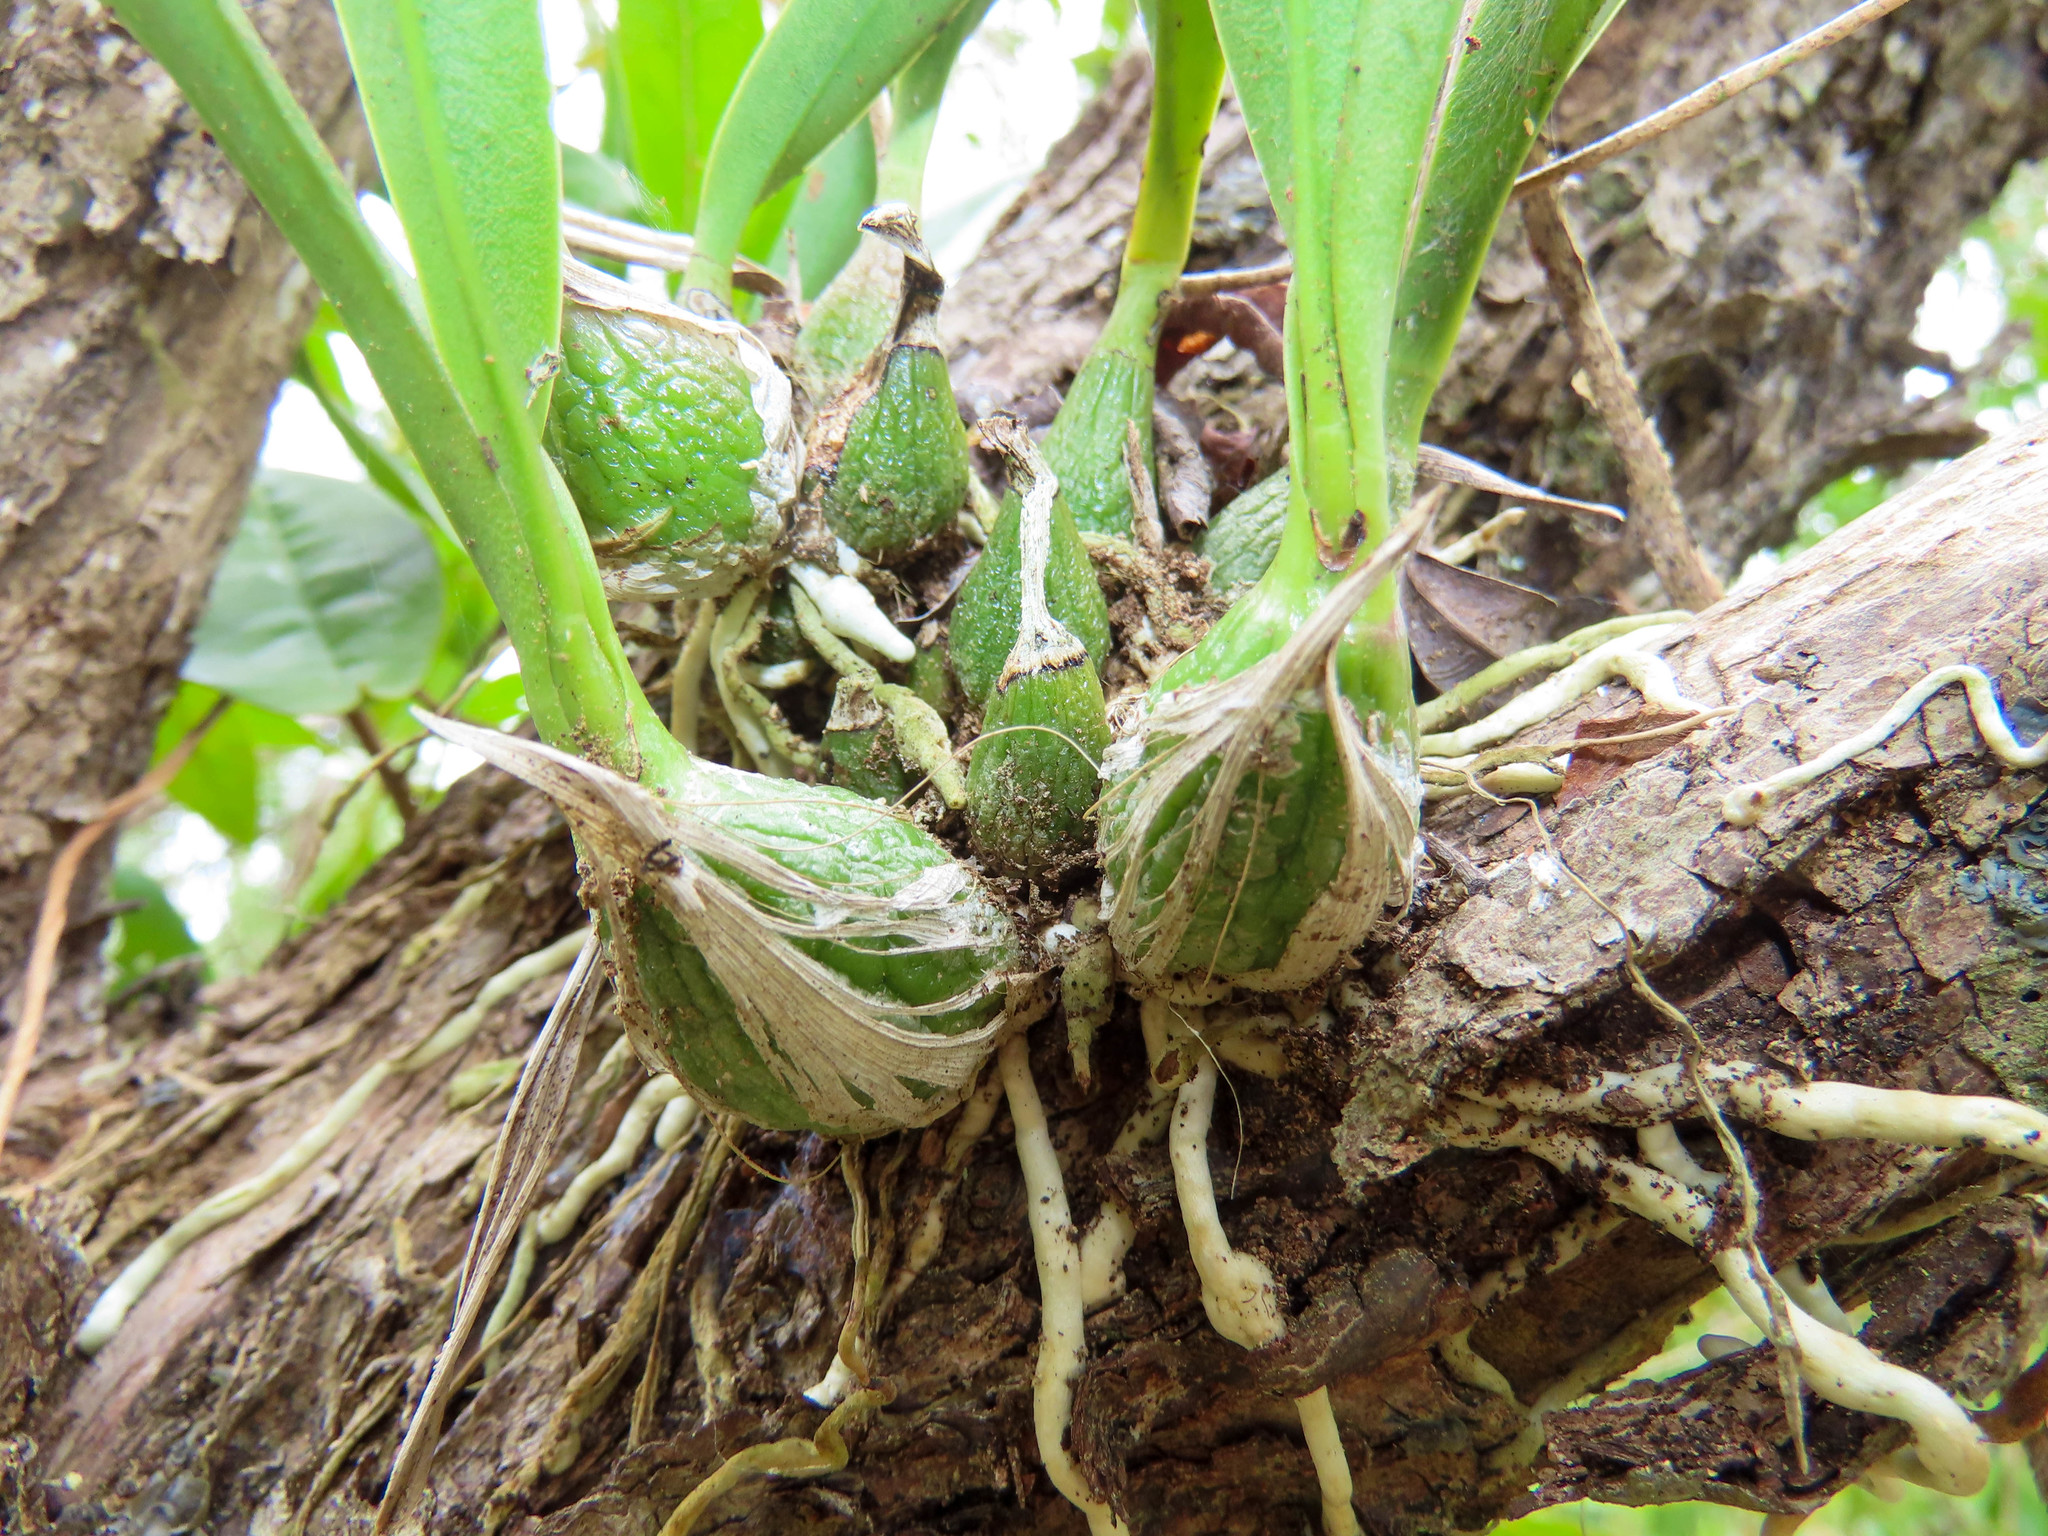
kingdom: Plantae
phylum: Tracheophyta
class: Liliopsida
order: Asparagales
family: Orchidaceae
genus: Encyclia
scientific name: Encyclia tampensis
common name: Florida butterfly orchid
